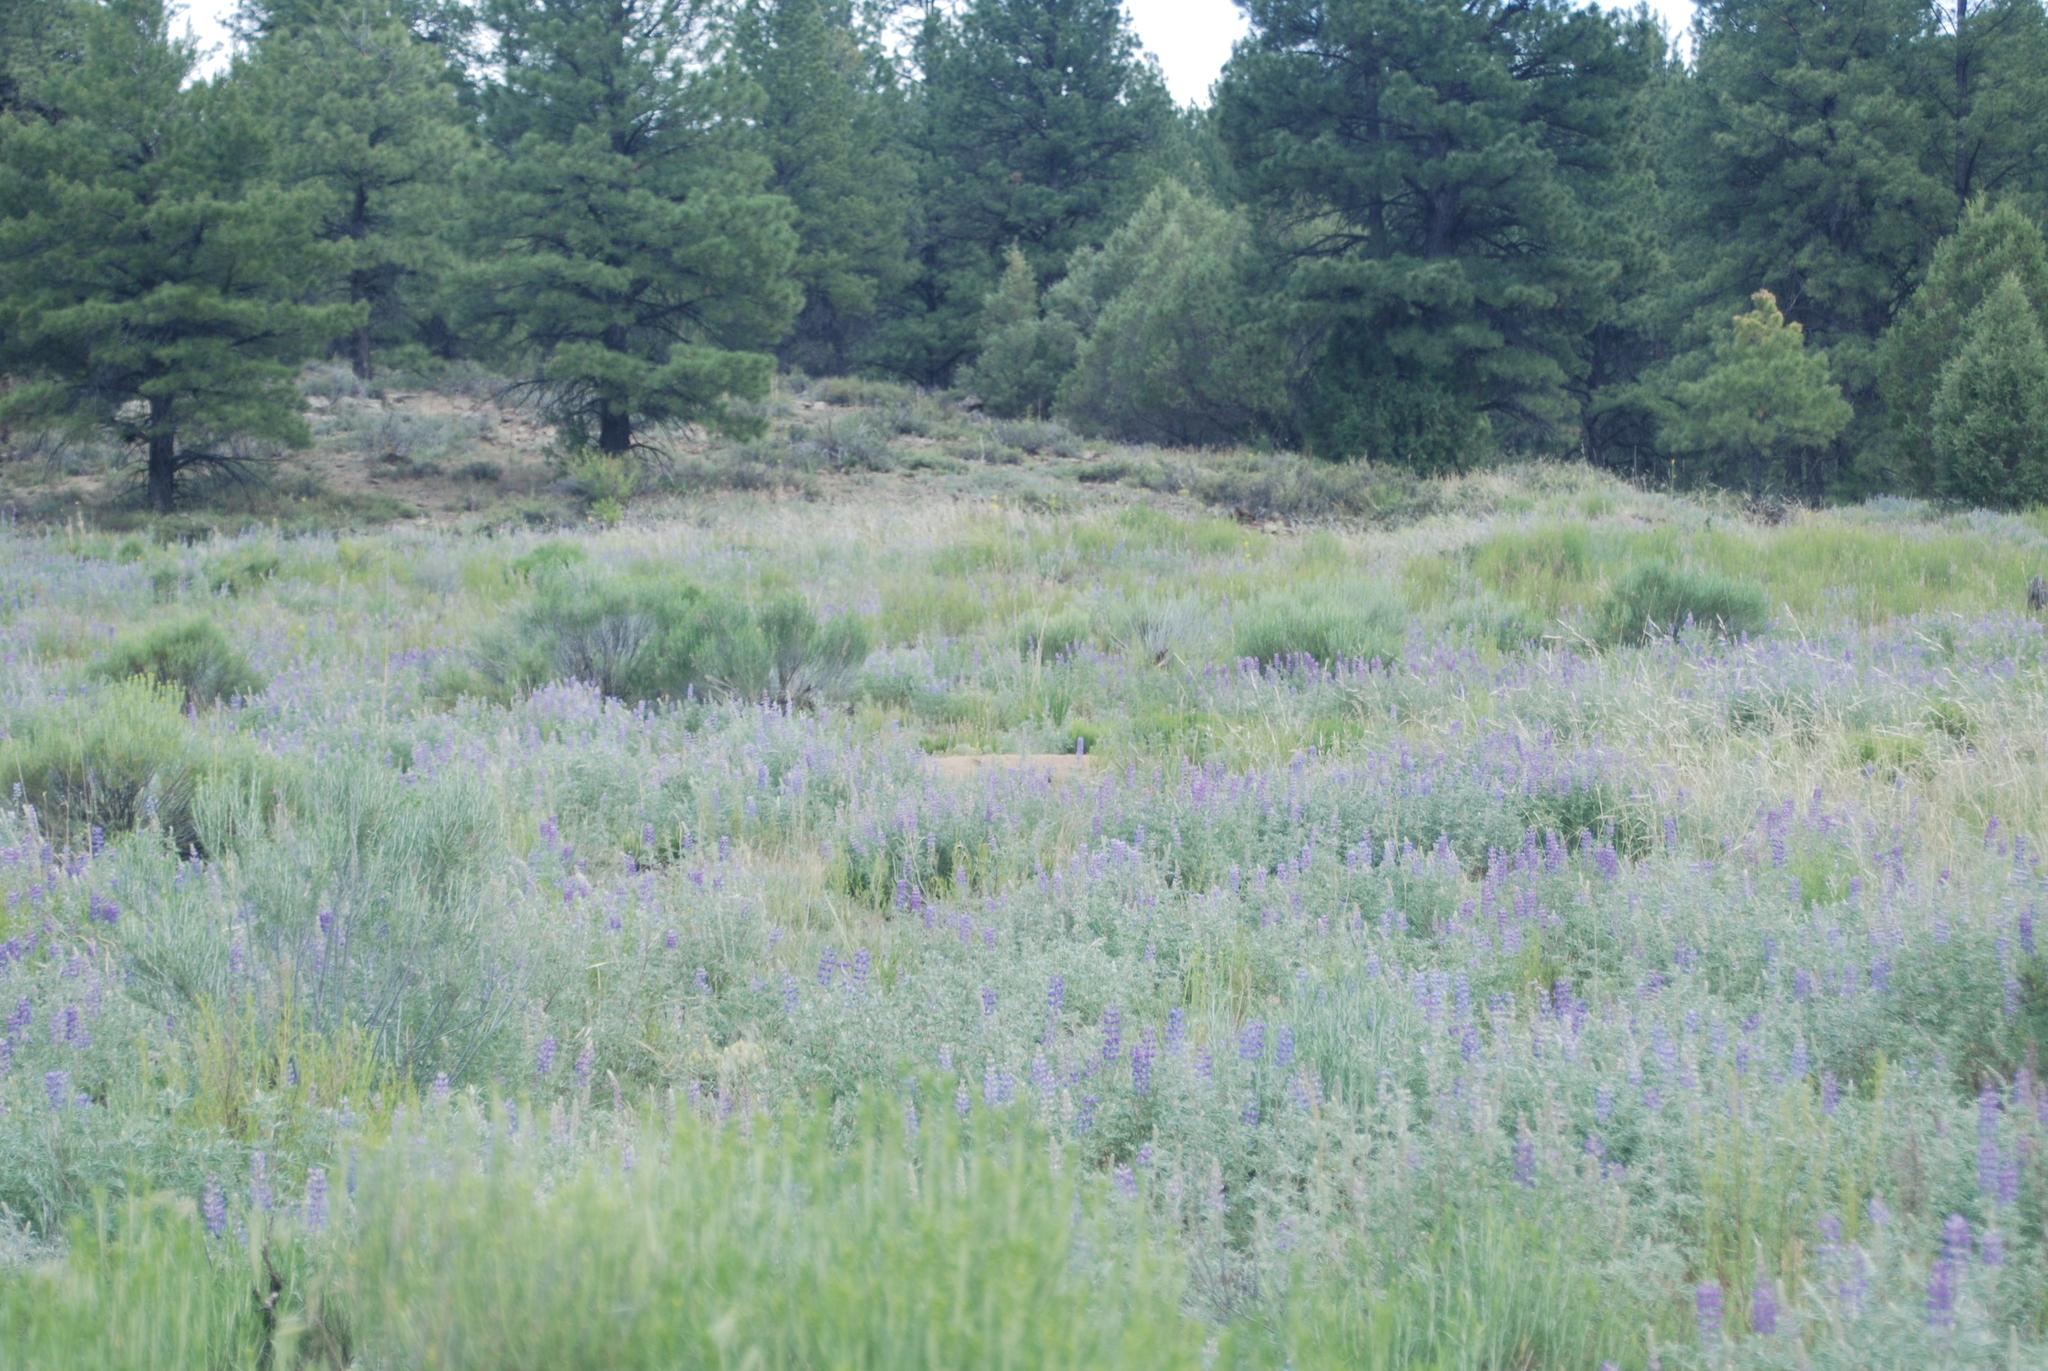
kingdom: Plantae
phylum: Tracheophyta
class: Pinopsida
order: Pinales
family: Pinaceae
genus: Pinus
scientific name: Pinus ponderosa
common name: Western yellow-pine
